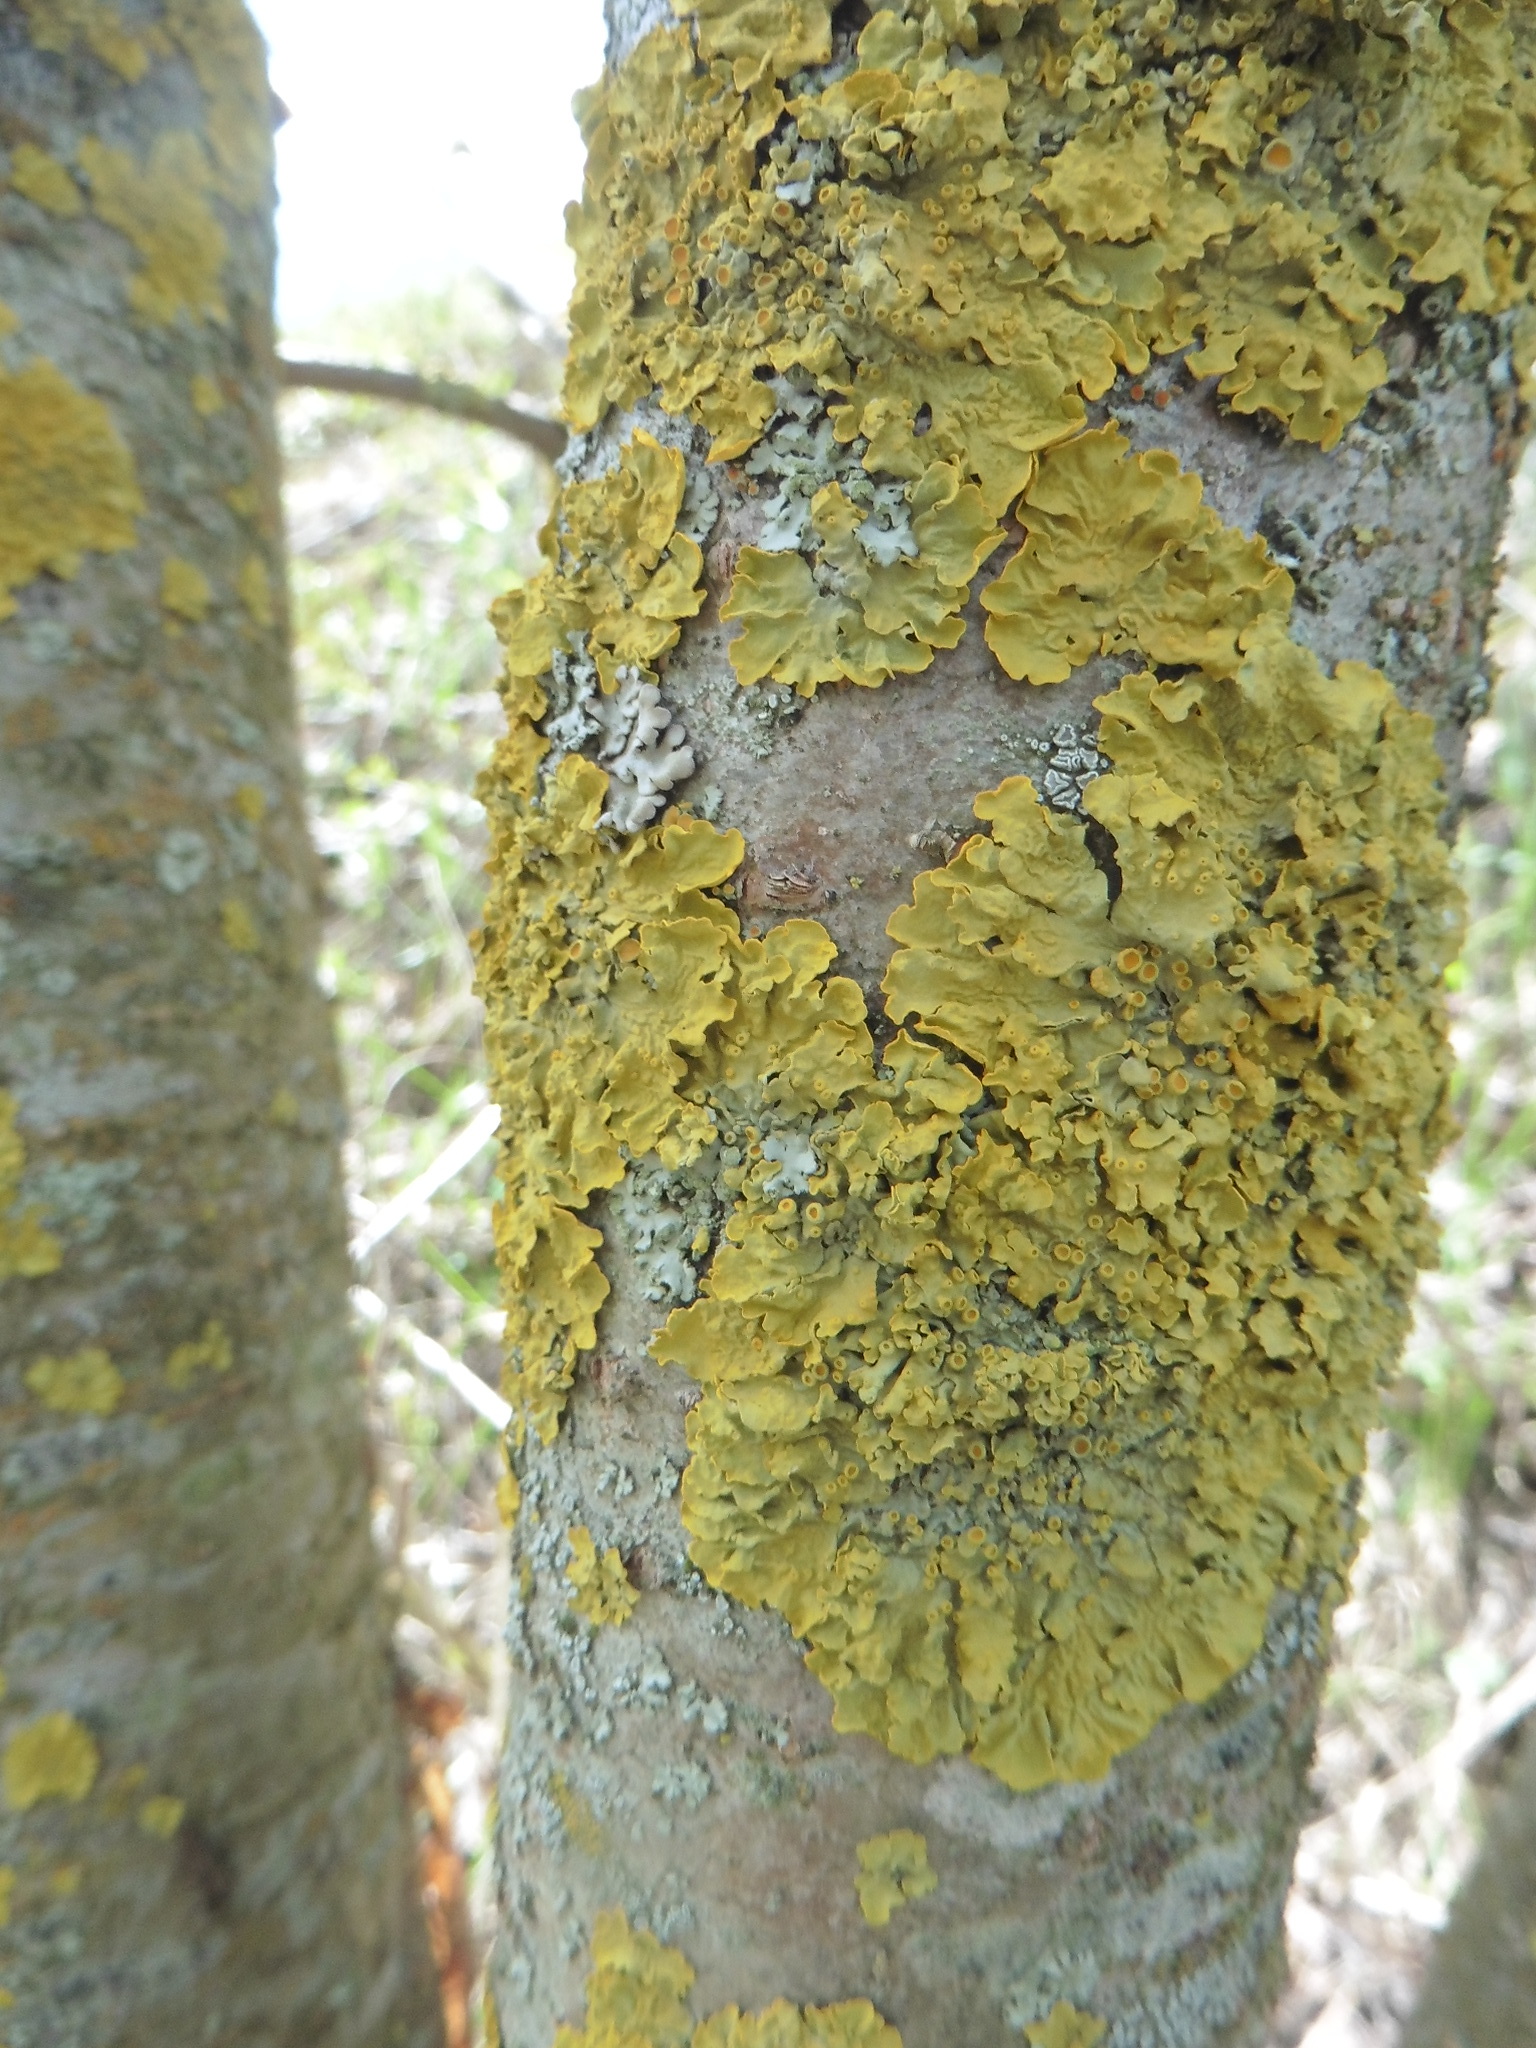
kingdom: Fungi
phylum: Ascomycota
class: Lecanoromycetes
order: Teloschistales
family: Teloschistaceae
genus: Xanthoria
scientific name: Xanthoria parietina
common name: Common orange lichen
